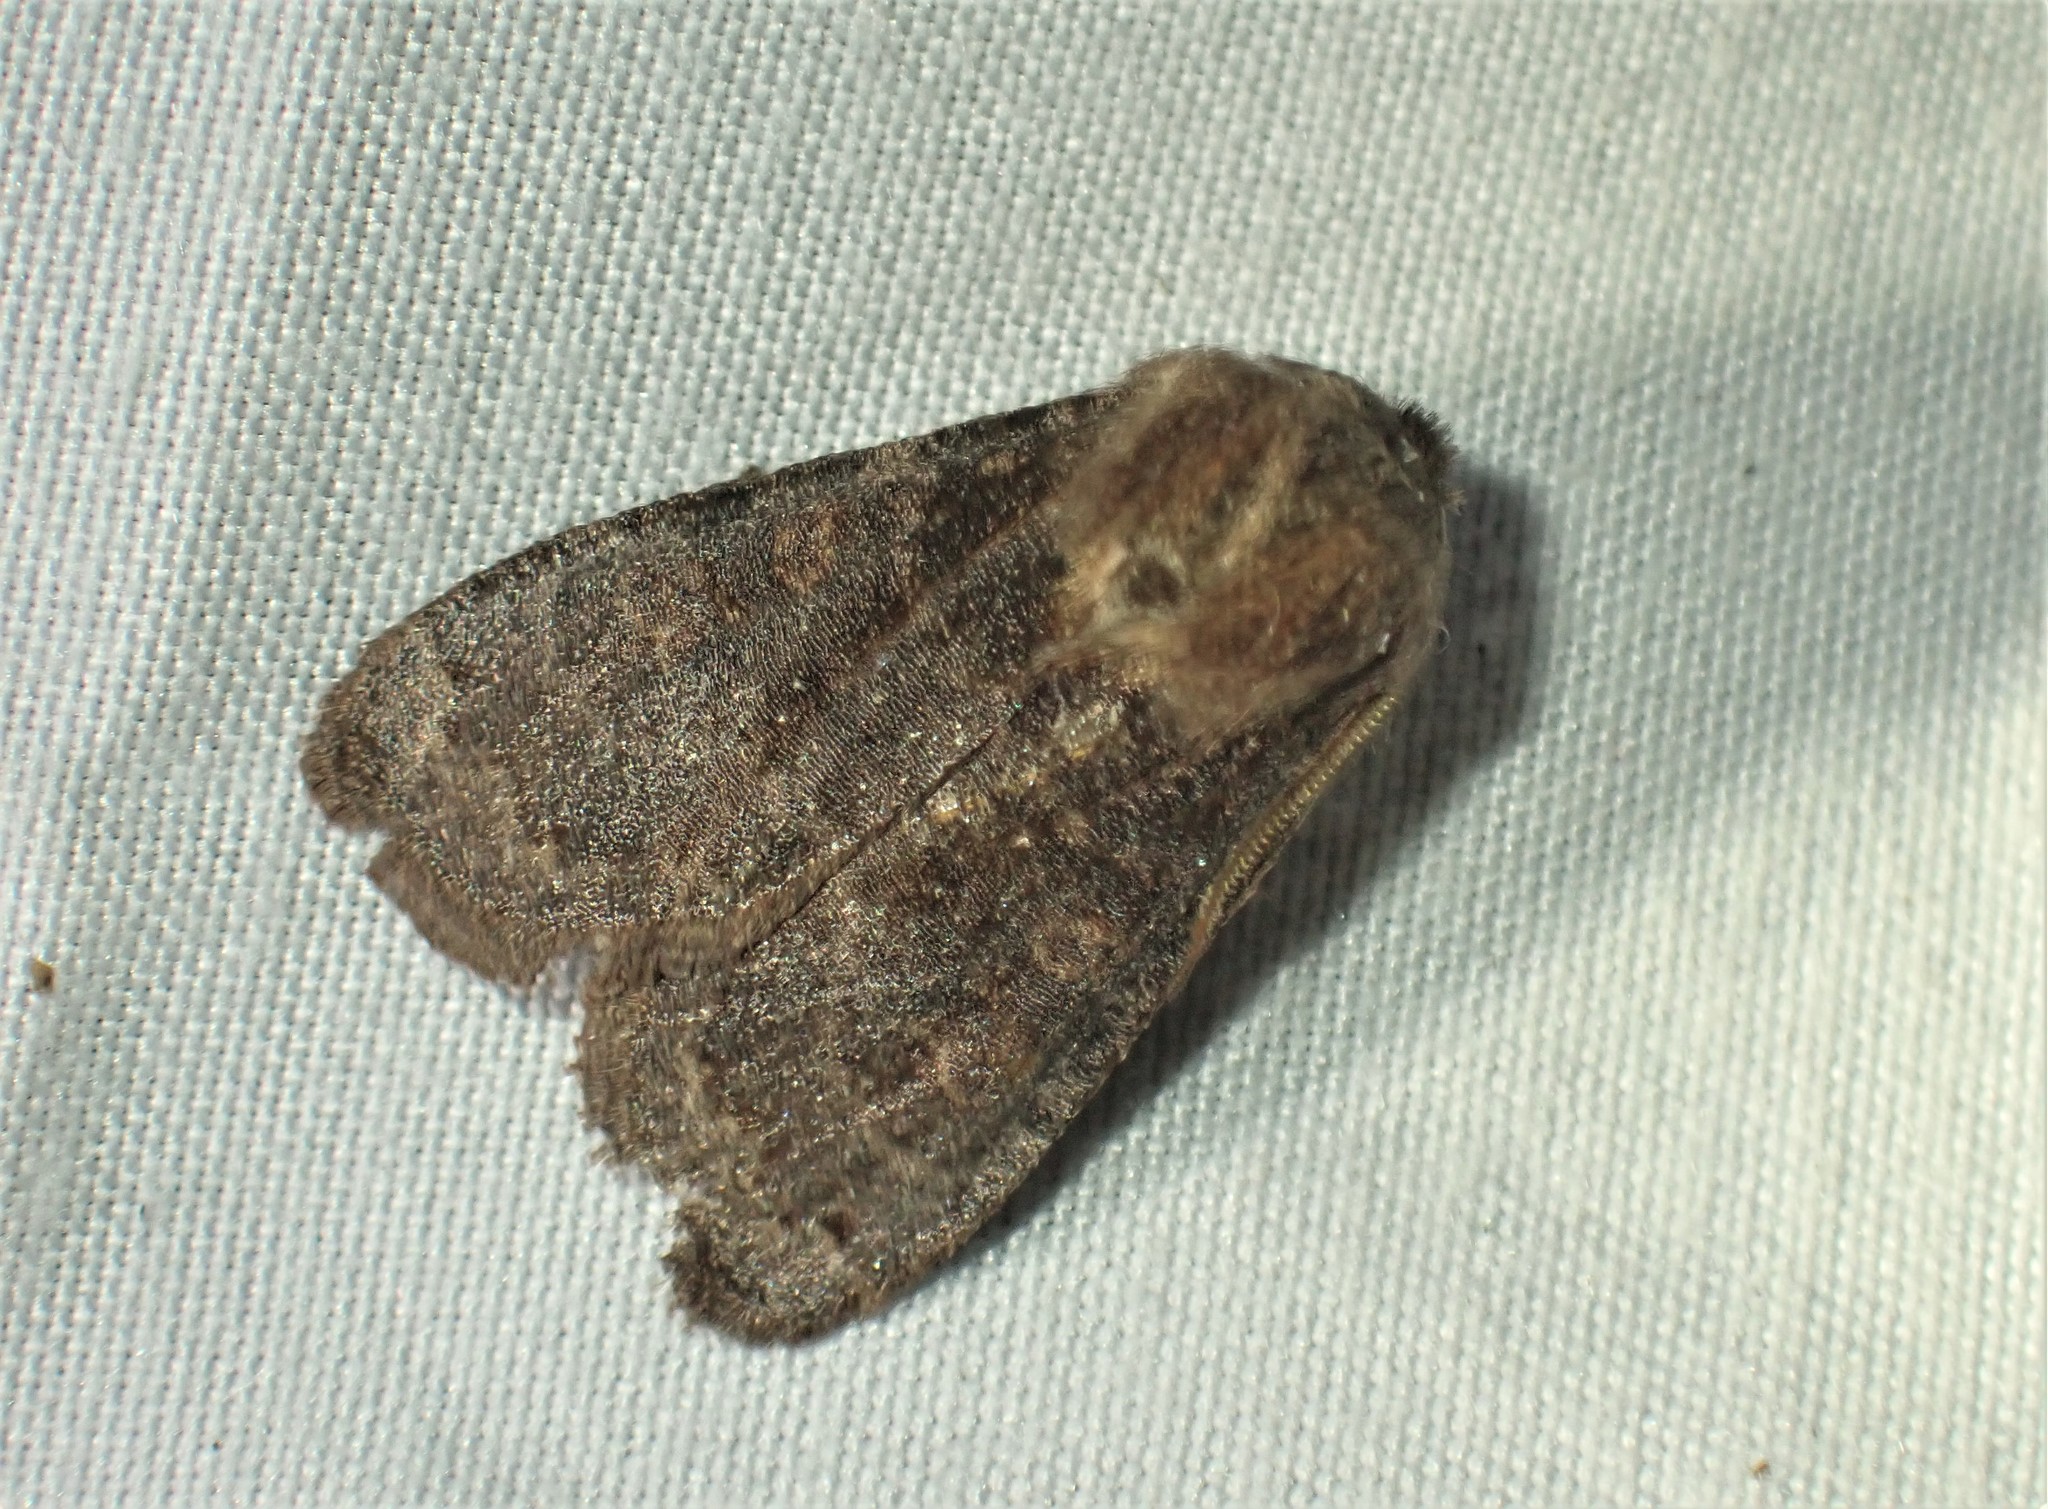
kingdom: Animalia
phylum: Arthropoda
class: Insecta
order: Lepidoptera
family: Noctuidae
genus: Homoglaea
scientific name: Homoglaea hircina
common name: Goat sallow
